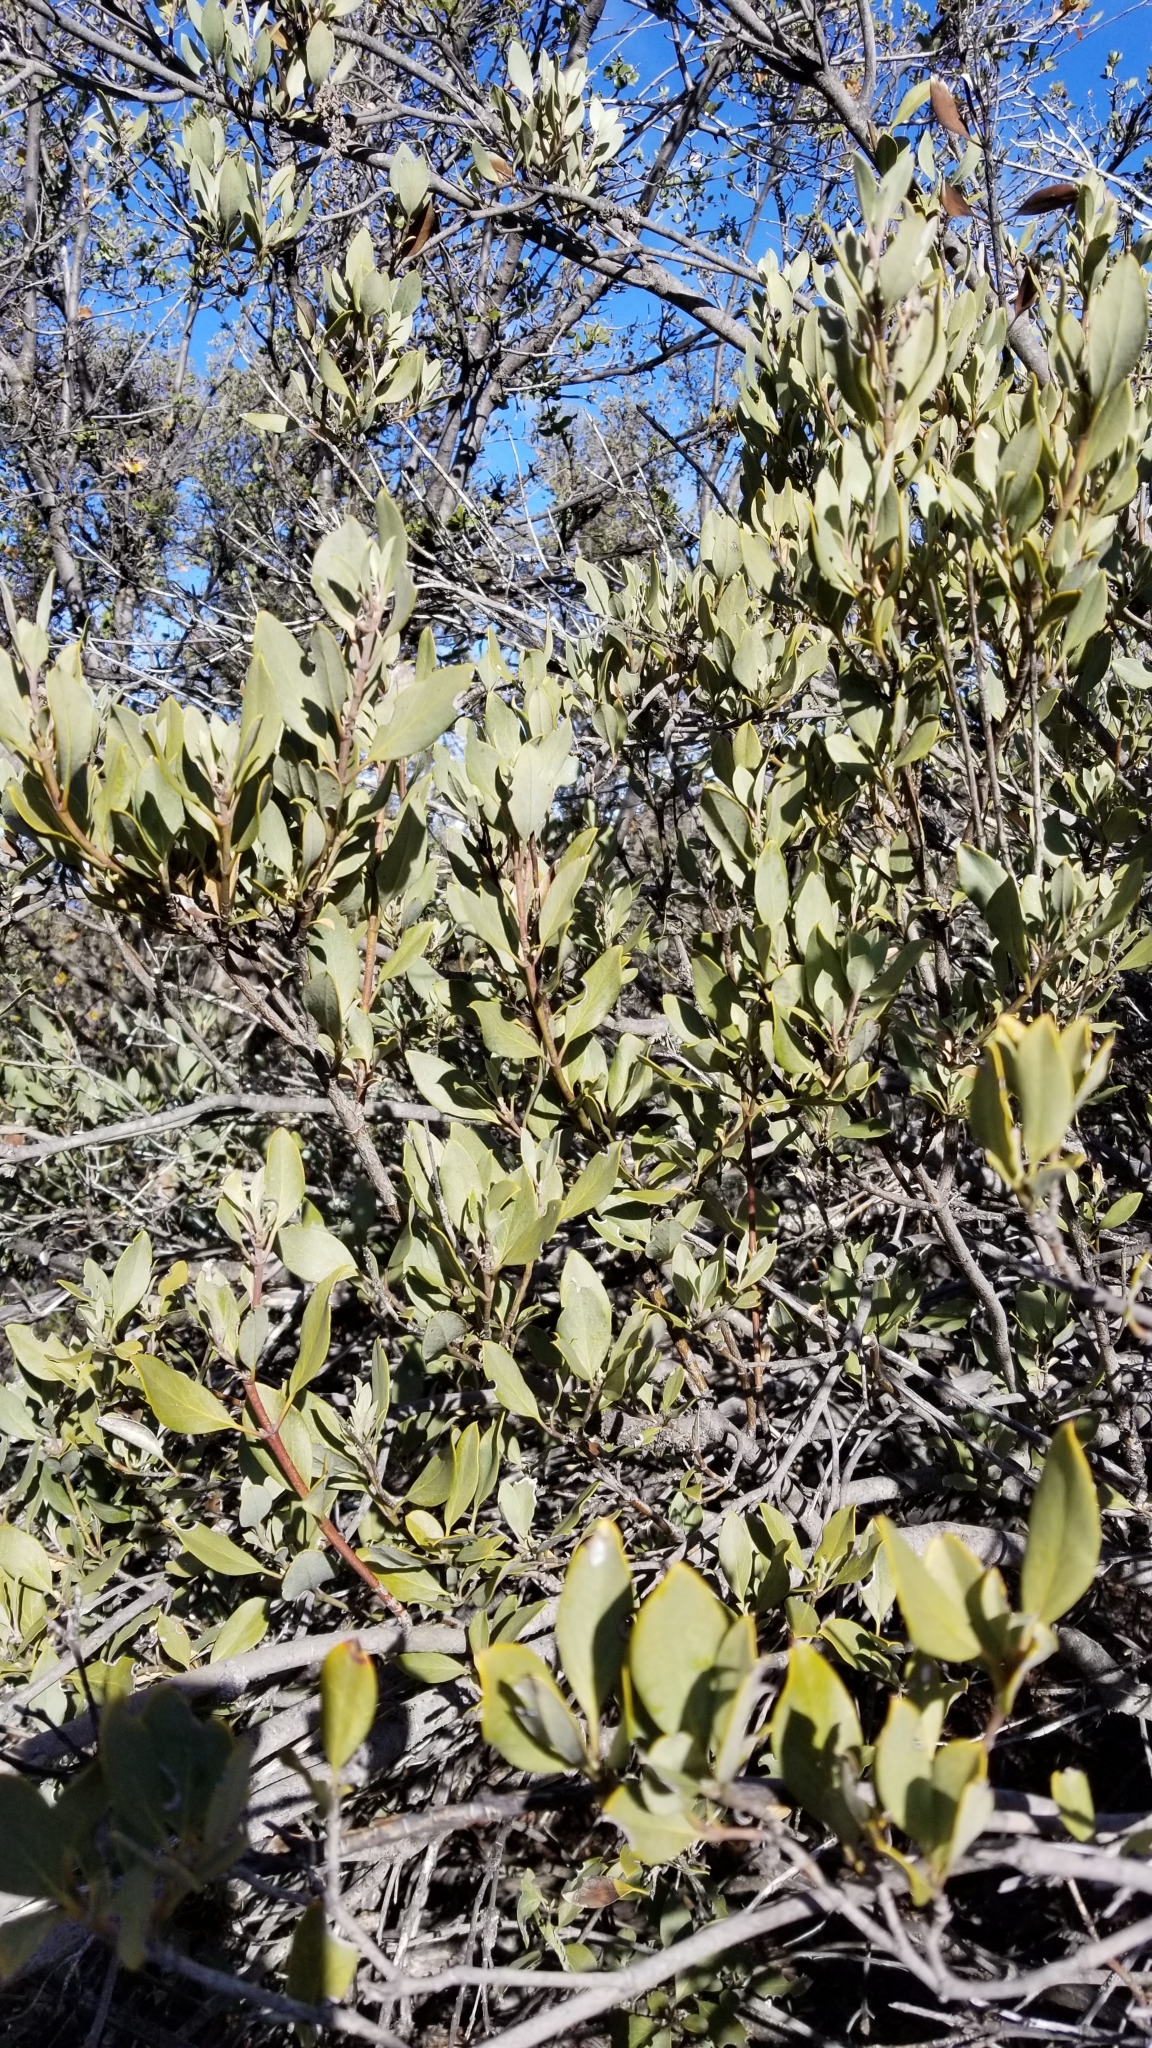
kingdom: Plantae
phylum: Tracheophyta
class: Magnoliopsida
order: Garryales
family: Garryaceae
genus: Garrya
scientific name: Garrya flavescens
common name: Ashy silk-tassel
